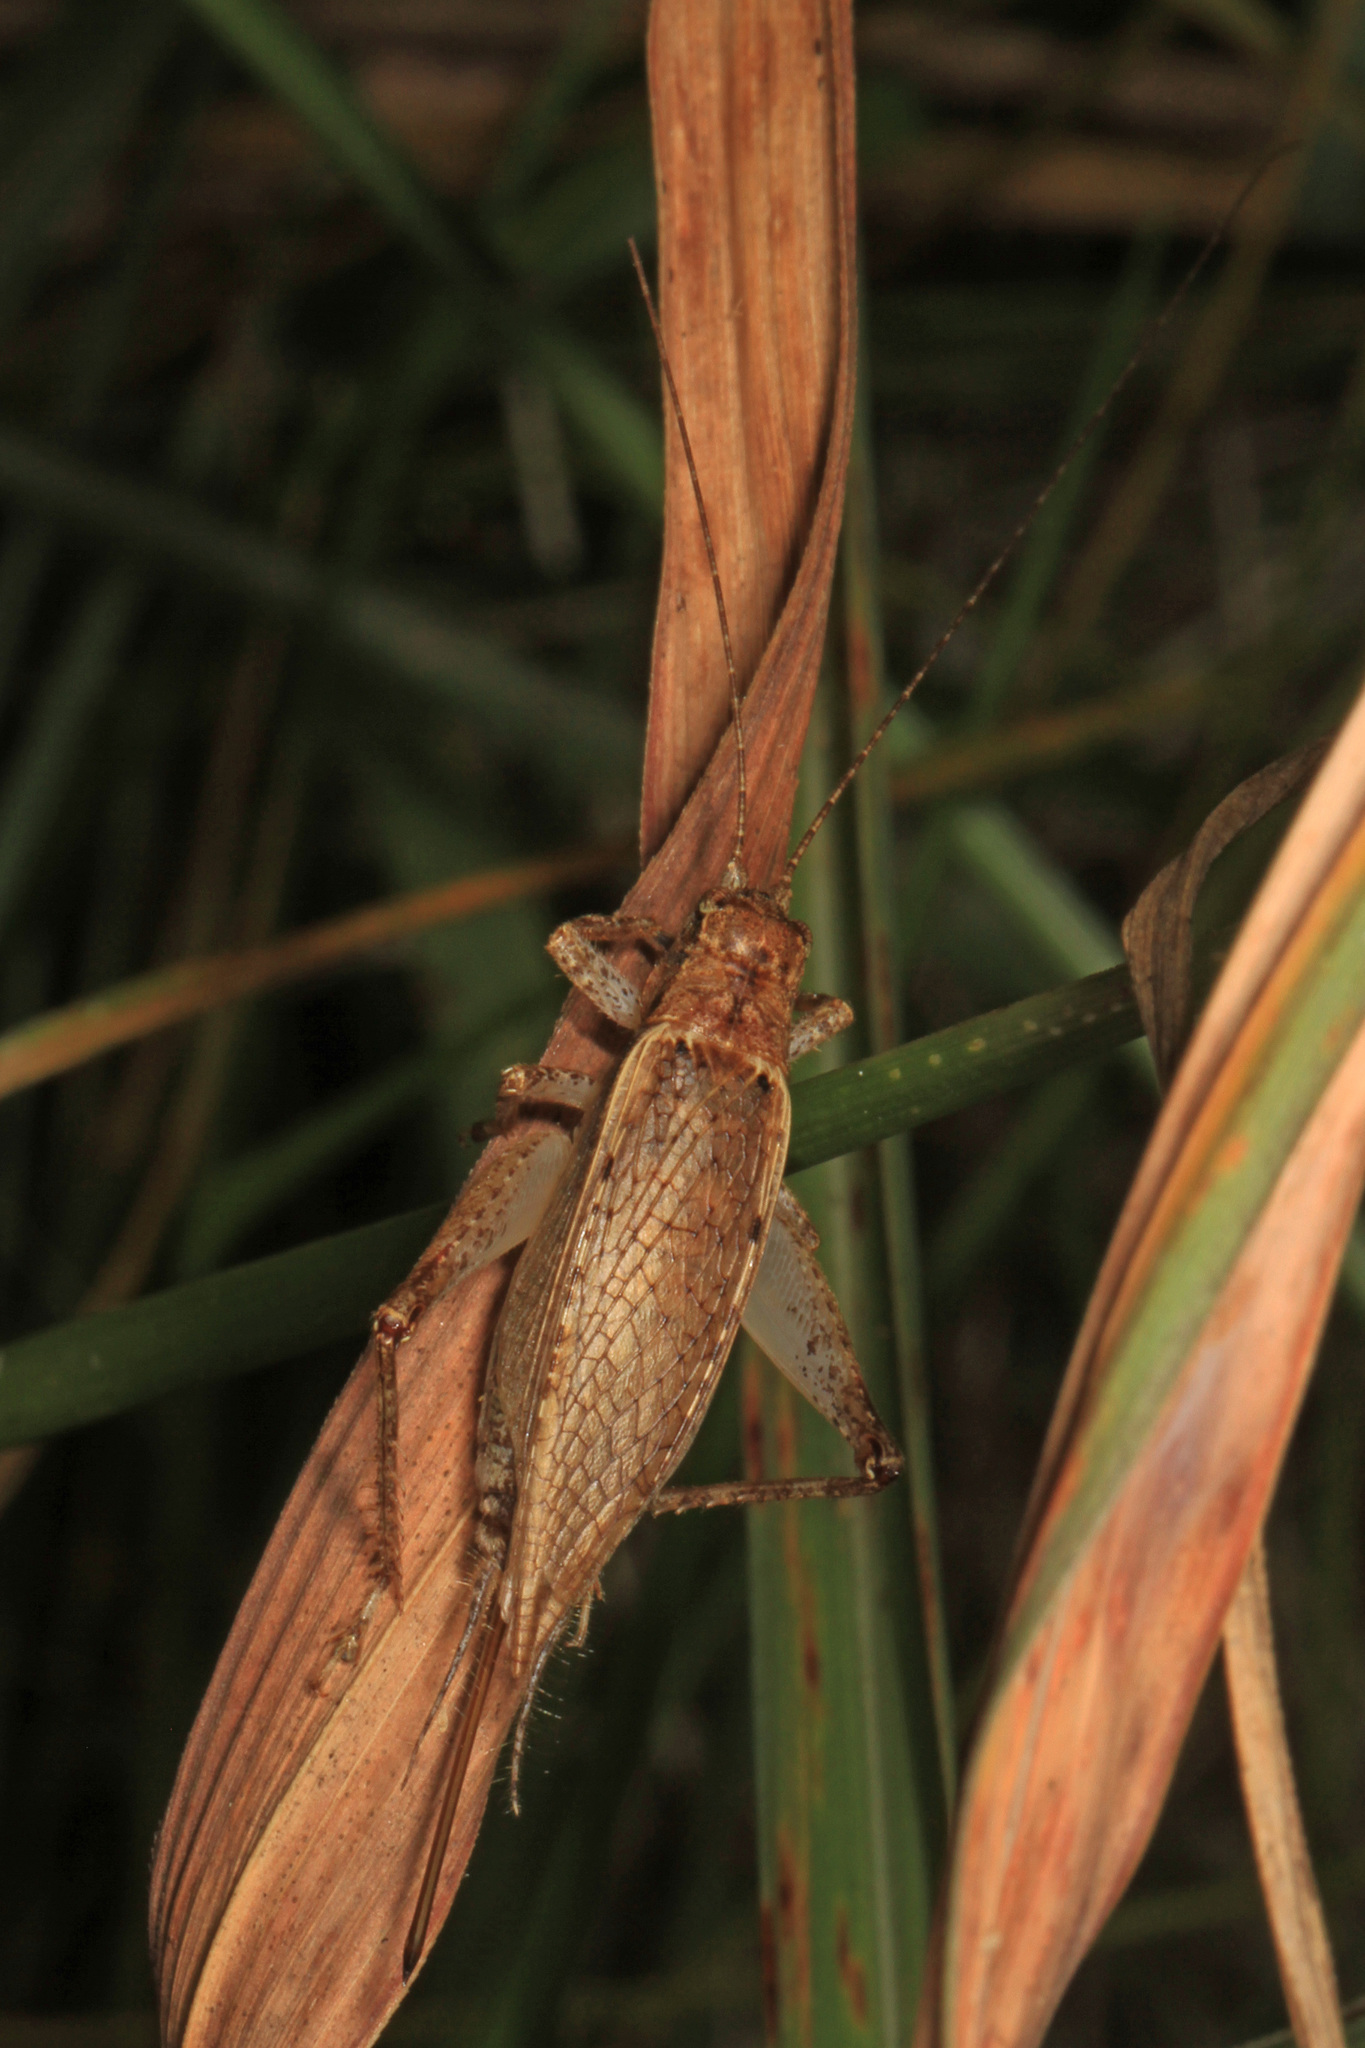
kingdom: Animalia
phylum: Arthropoda
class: Insecta
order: Orthoptera
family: Gryllidae
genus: Hapithus
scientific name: Hapithus saltator
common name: Jumping bush cricket
